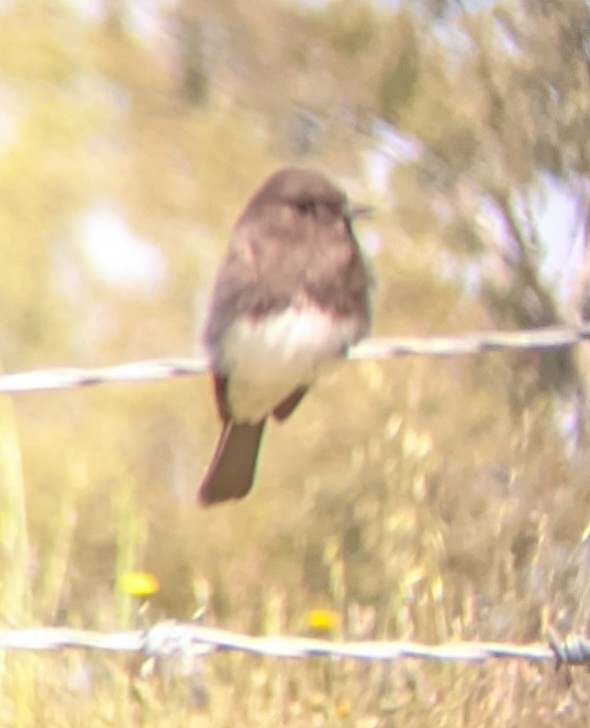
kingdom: Animalia
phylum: Chordata
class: Aves
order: Passeriformes
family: Tyrannidae
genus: Sayornis
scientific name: Sayornis nigricans
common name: Black phoebe
